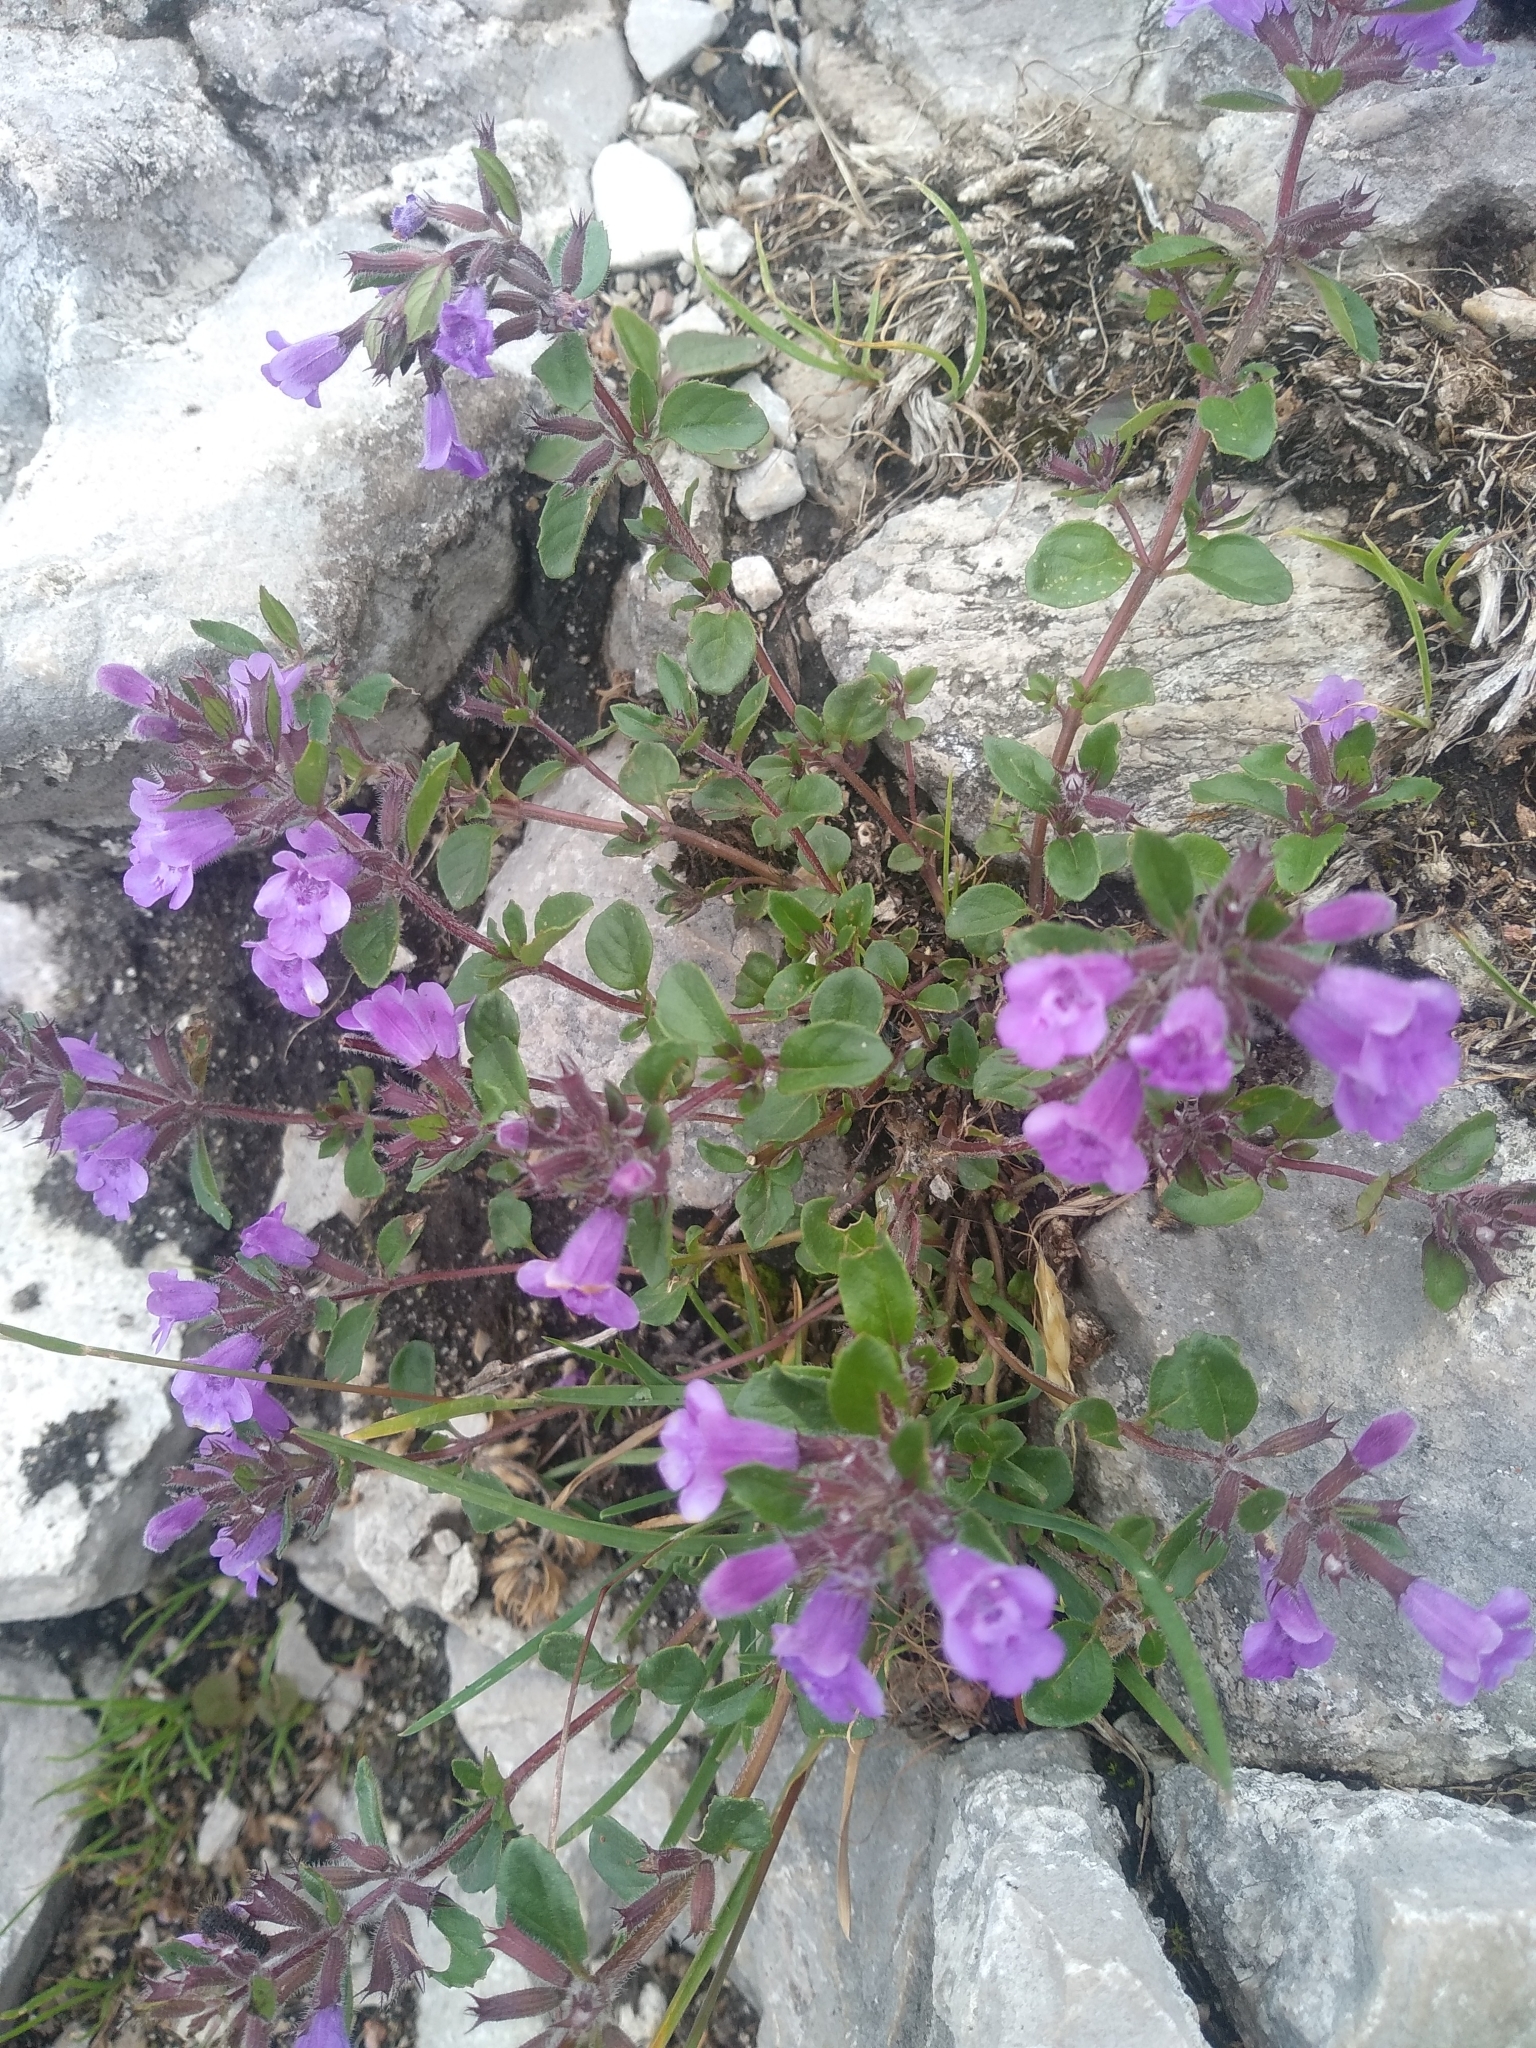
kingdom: Plantae
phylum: Tracheophyta
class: Magnoliopsida
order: Lamiales
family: Lamiaceae
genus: Clinopodium
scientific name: Clinopodium alpinum
